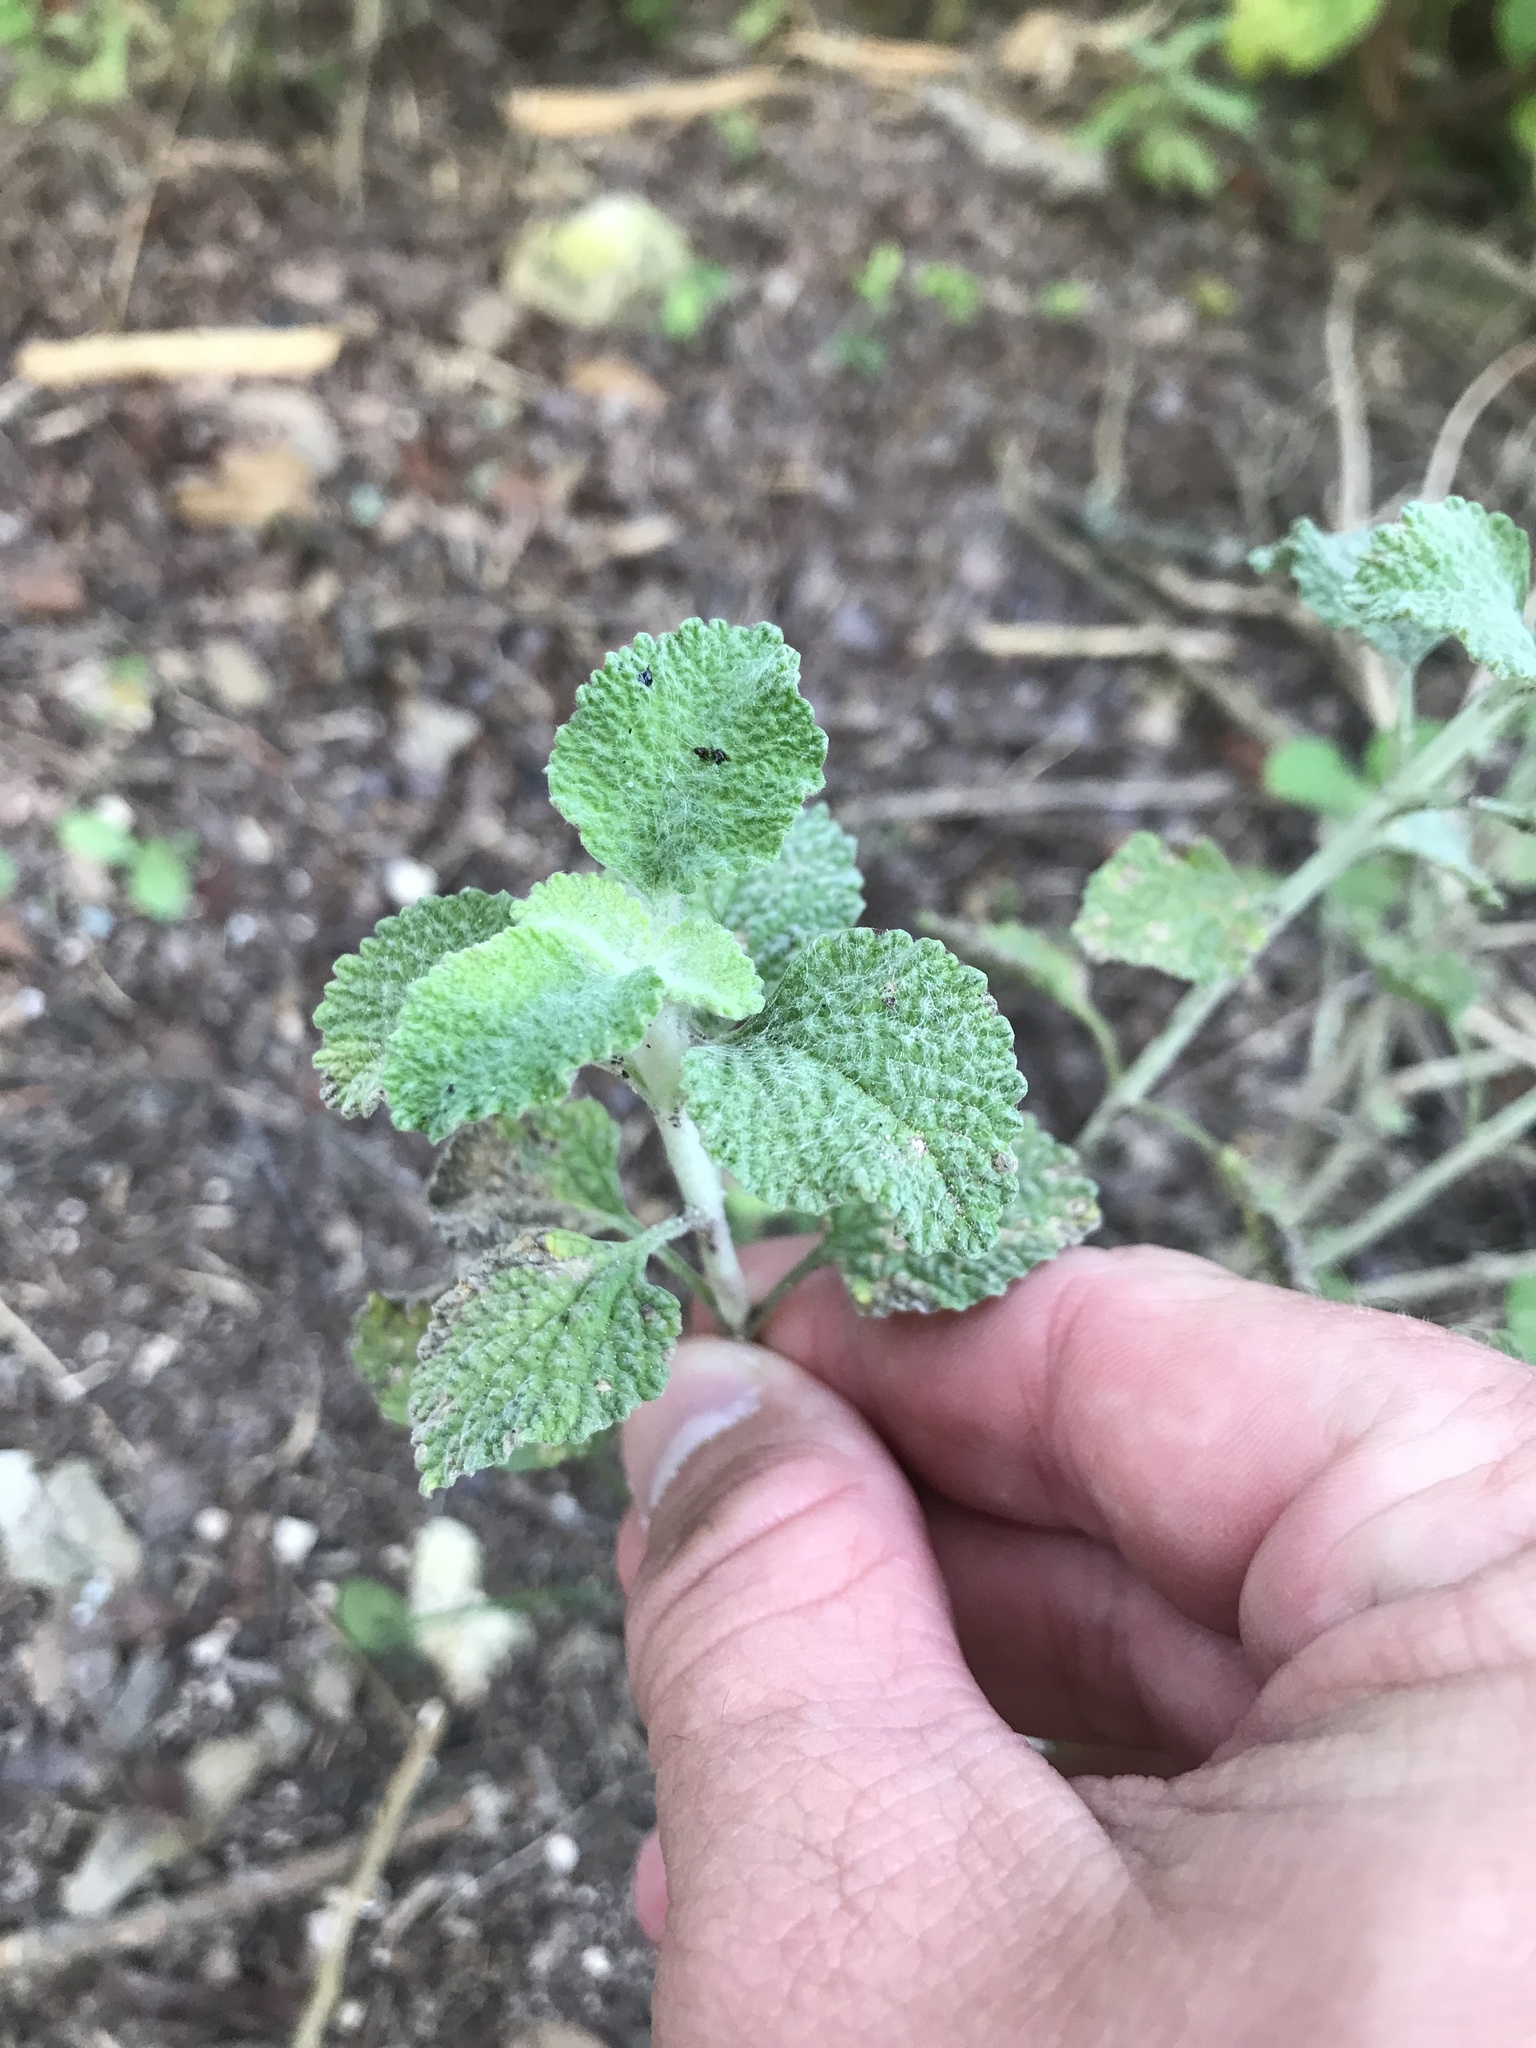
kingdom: Plantae
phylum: Tracheophyta
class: Magnoliopsida
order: Lamiales
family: Lamiaceae
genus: Marrubium
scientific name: Marrubium vulgare
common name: Horehound
